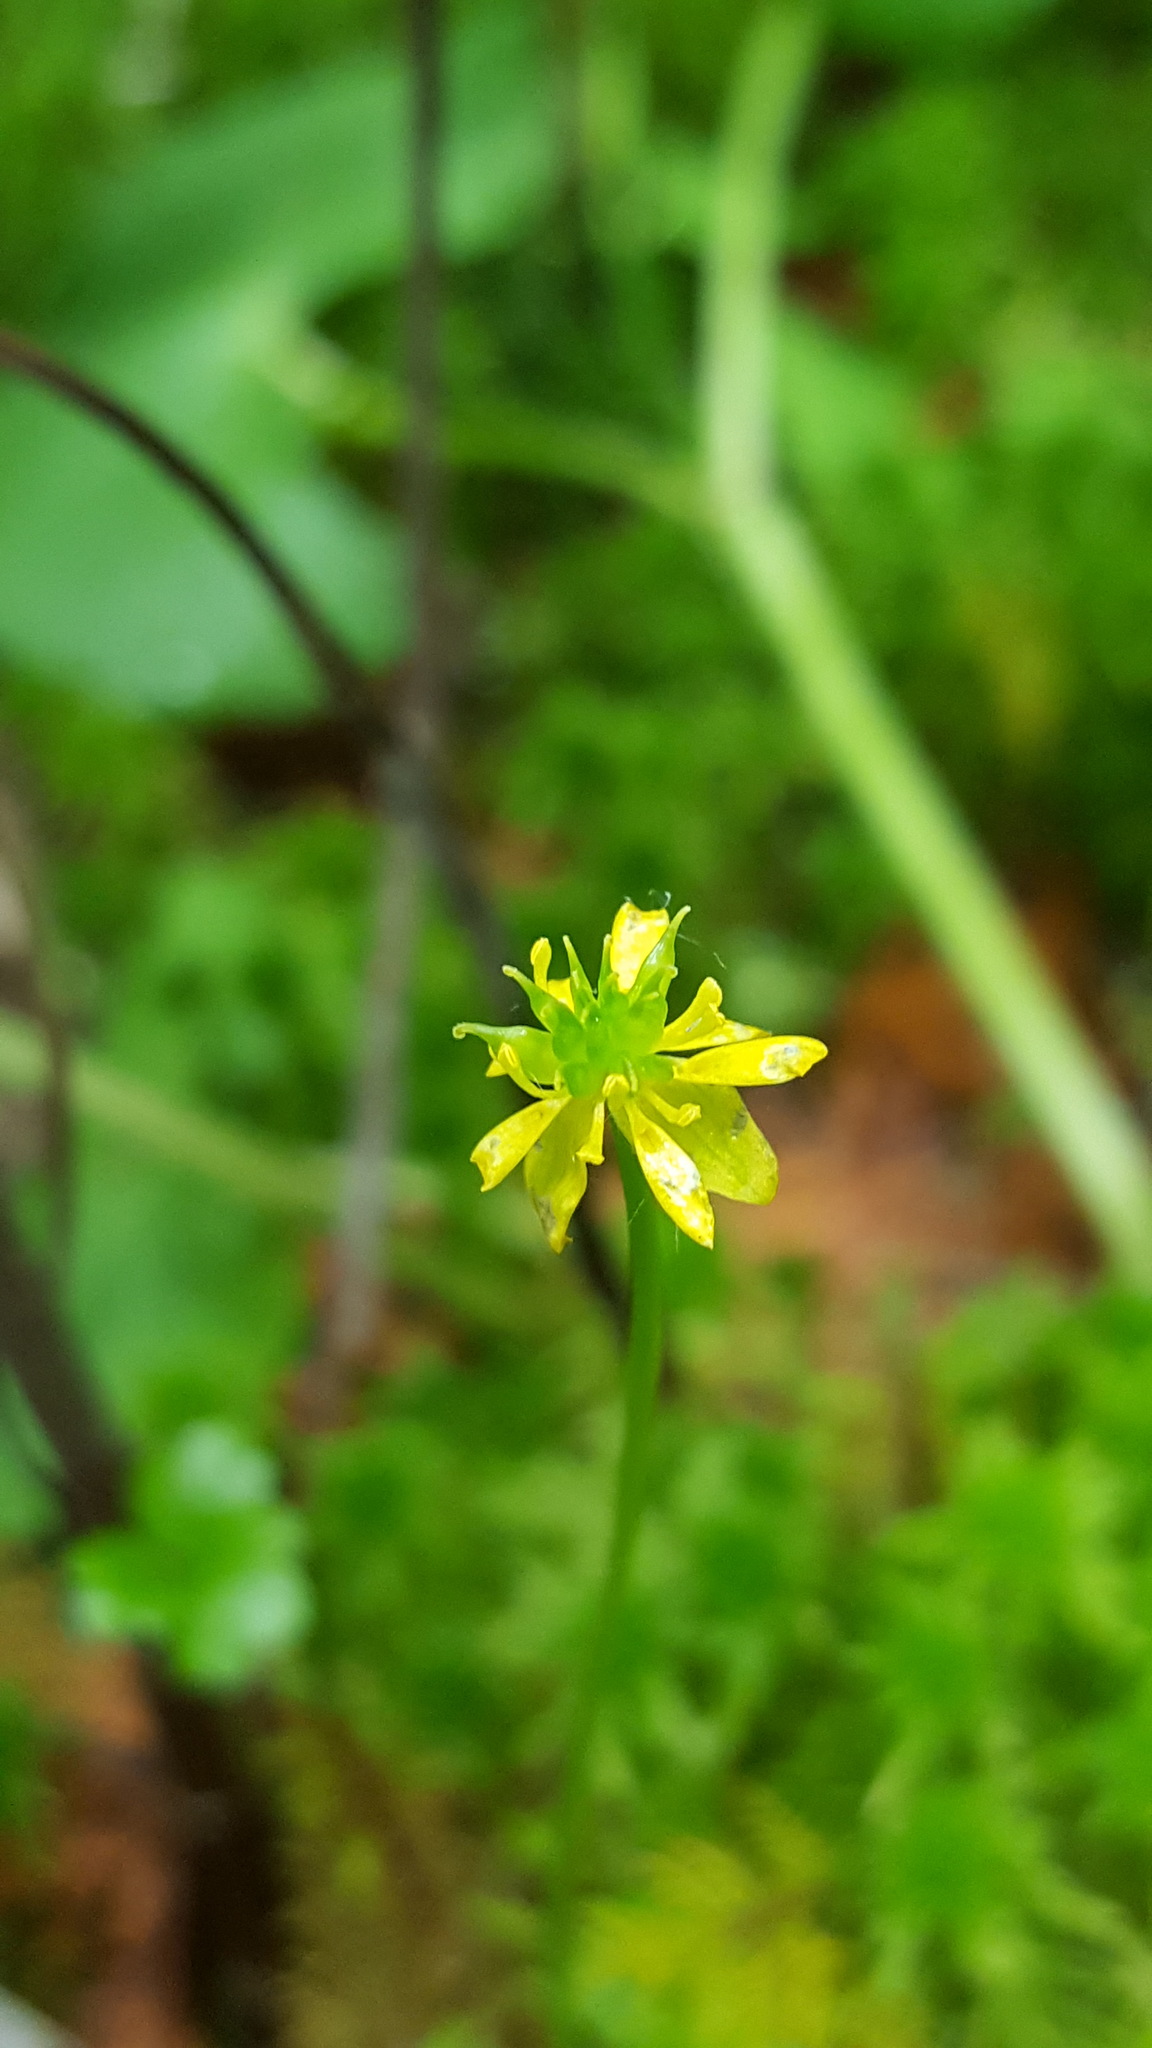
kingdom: Plantae
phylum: Tracheophyta
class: Magnoliopsida
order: Ranunculales
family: Ranunculaceae
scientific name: Ranunculaceae
